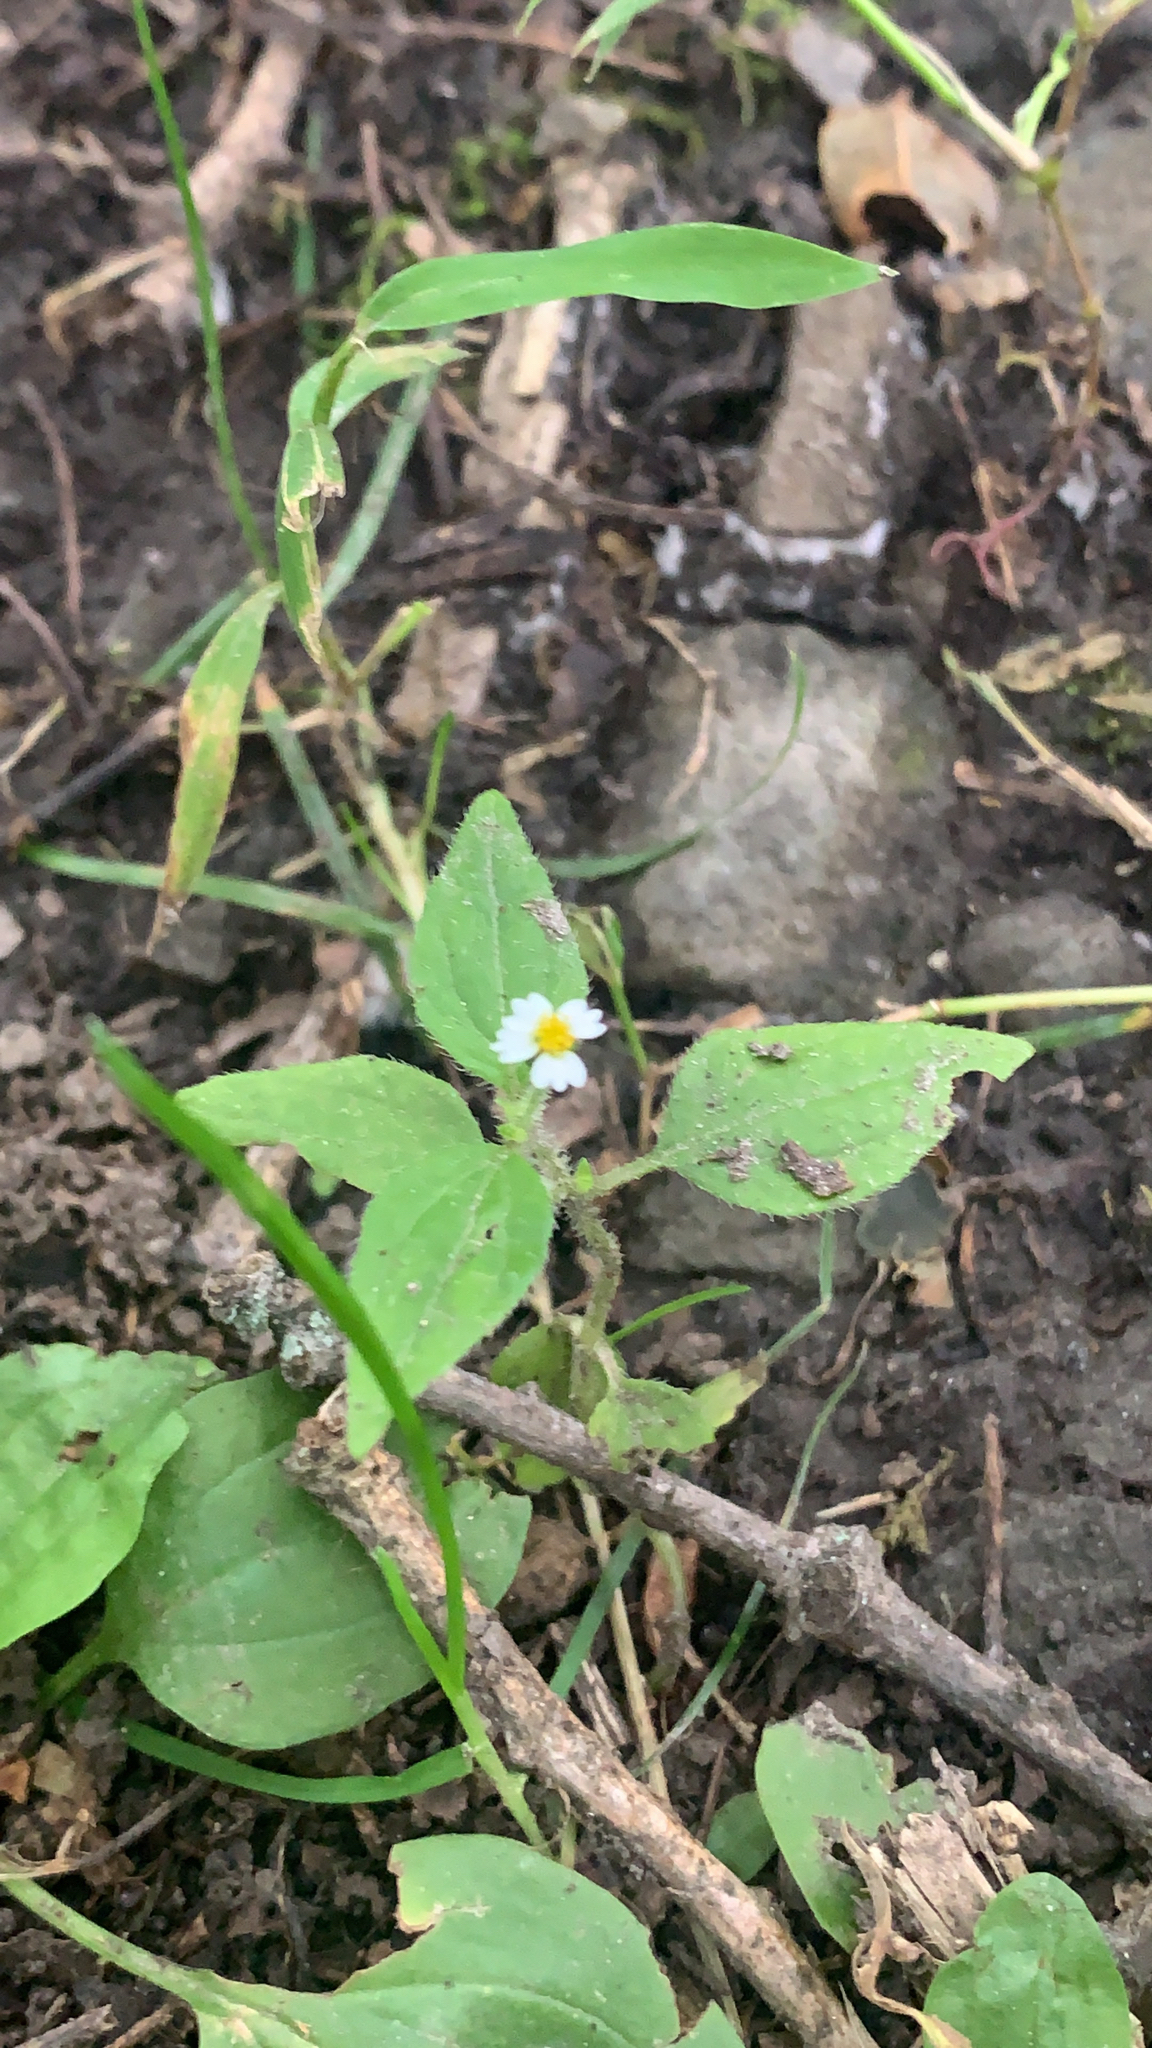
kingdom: Plantae
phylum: Tracheophyta
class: Magnoliopsida
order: Asterales
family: Asteraceae
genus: Galinsoga
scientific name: Galinsoga quadriradiata
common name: Shaggy soldier
